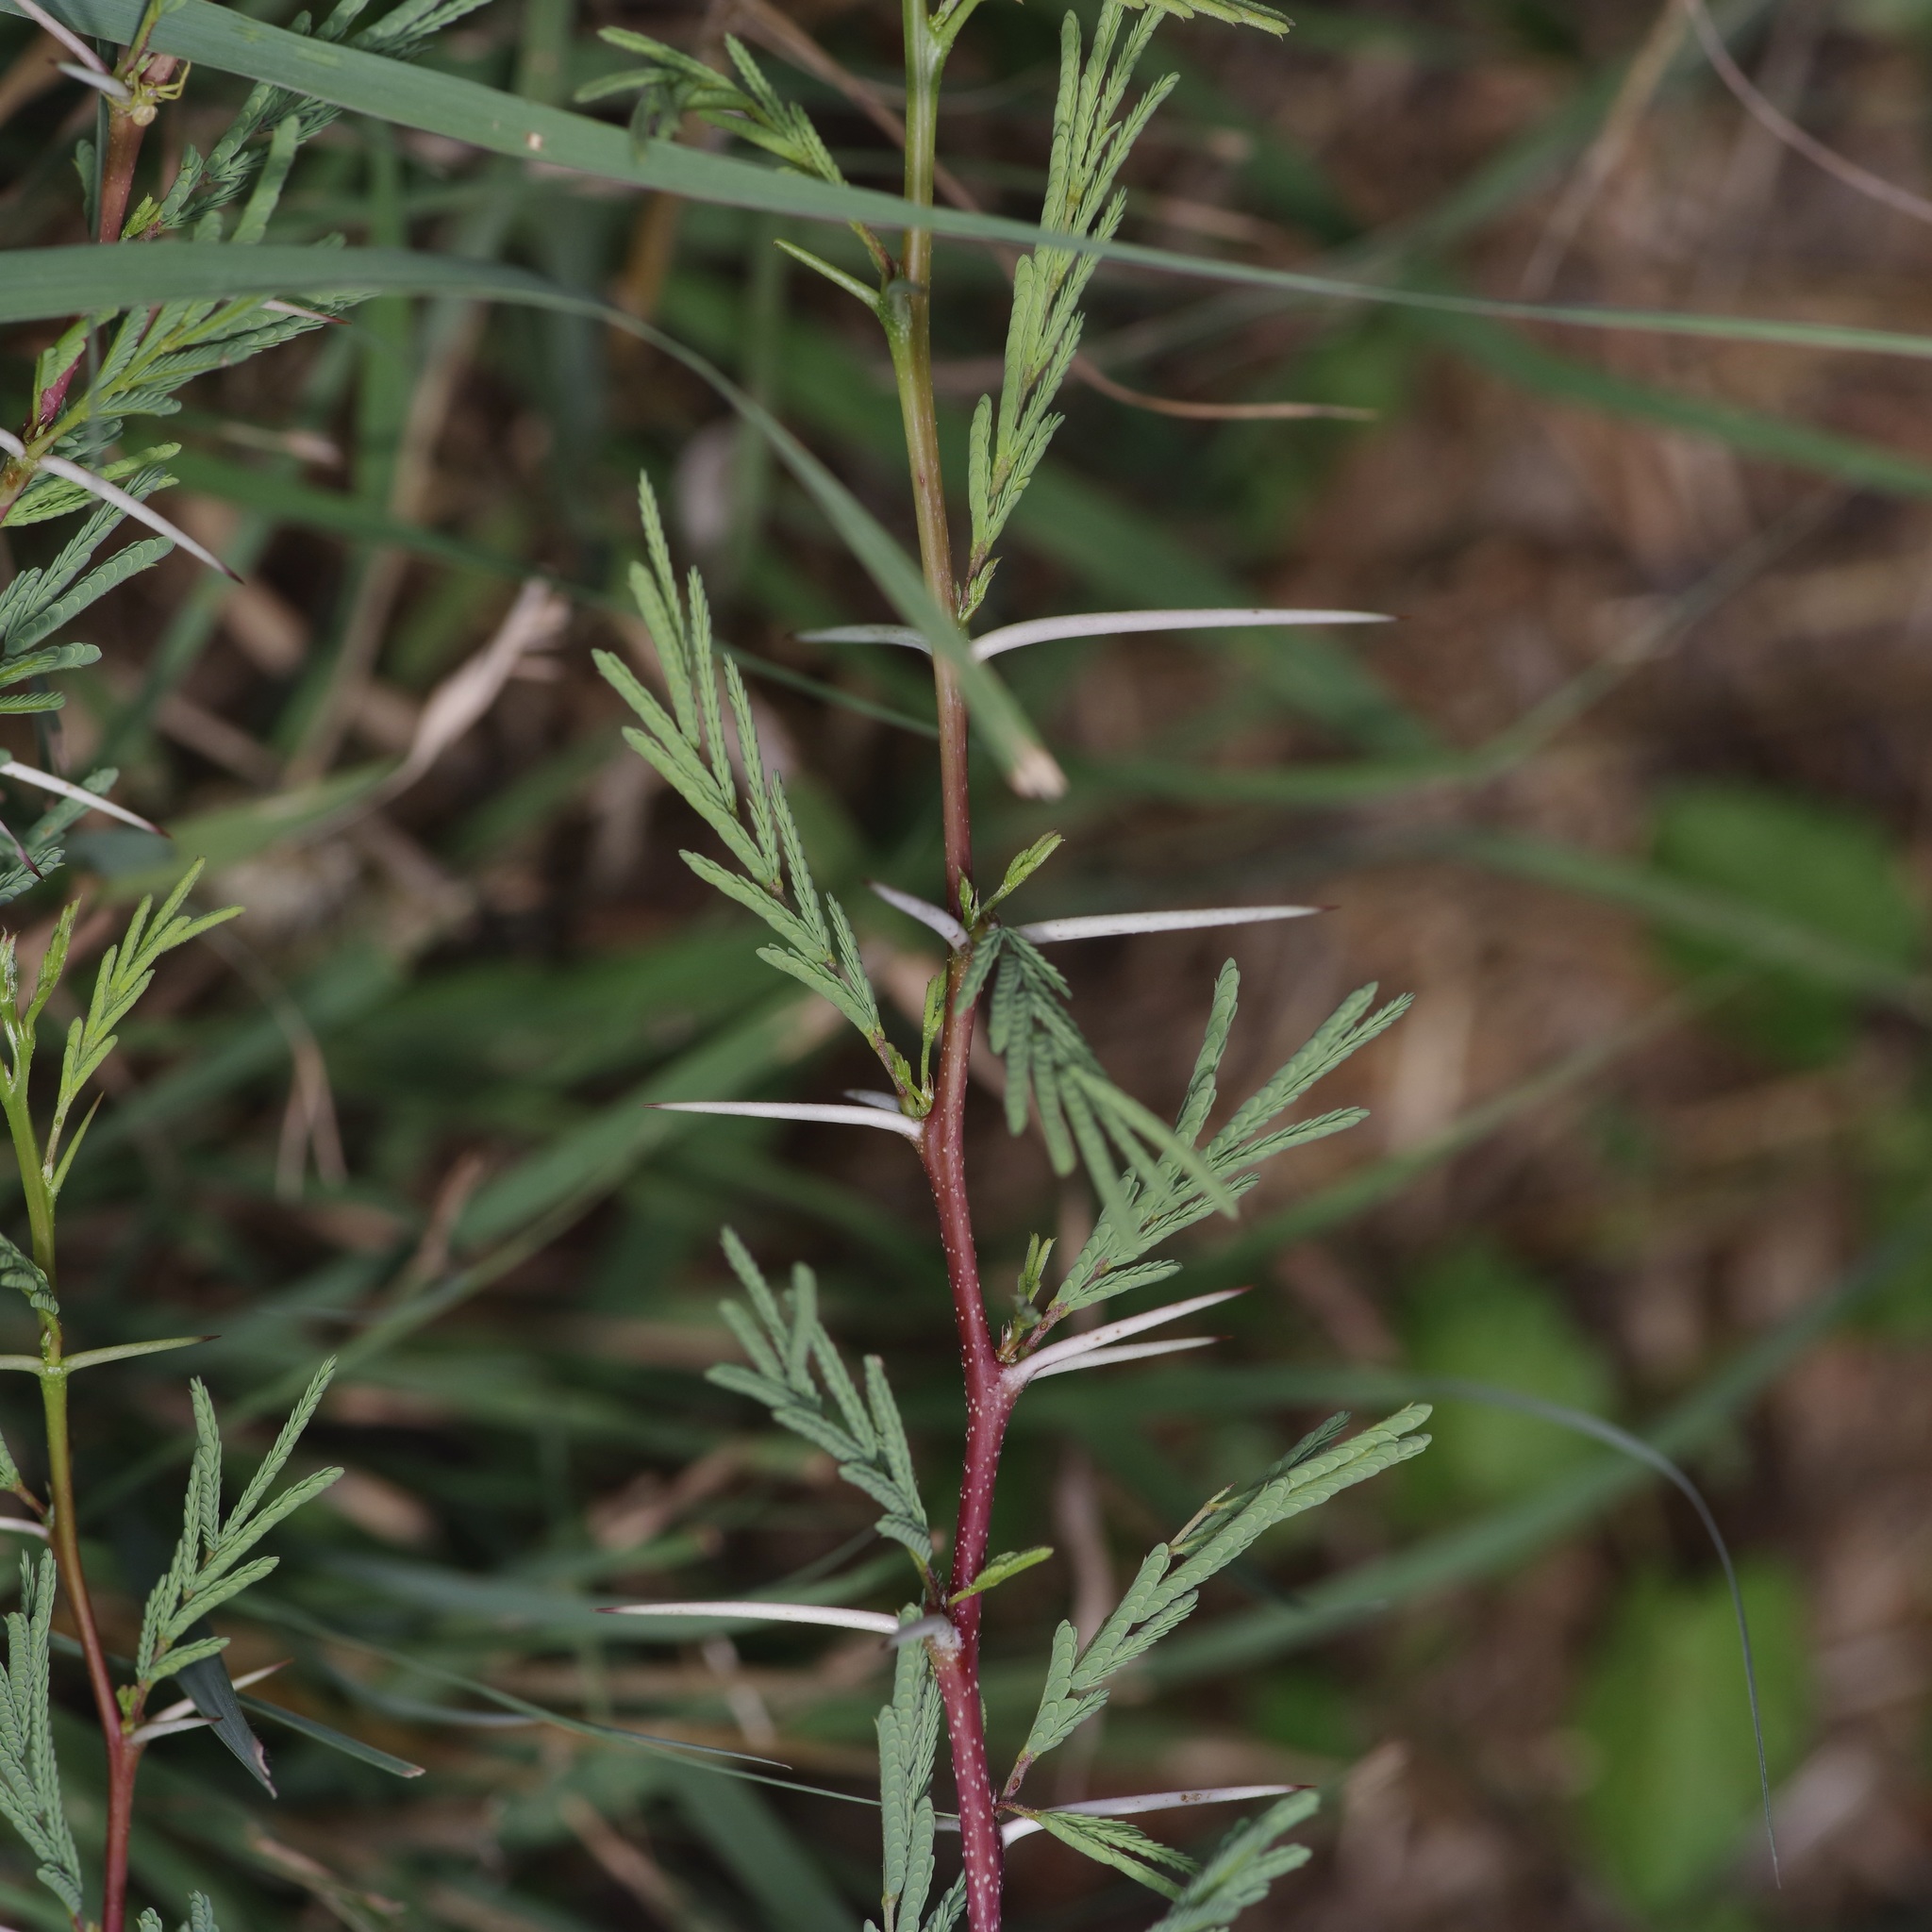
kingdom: Plantae
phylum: Tracheophyta
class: Magnoliopsida
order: Fabales
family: Fabaceae
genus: Vachellia
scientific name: Vachellia farnesiana
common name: Sweet acacia
